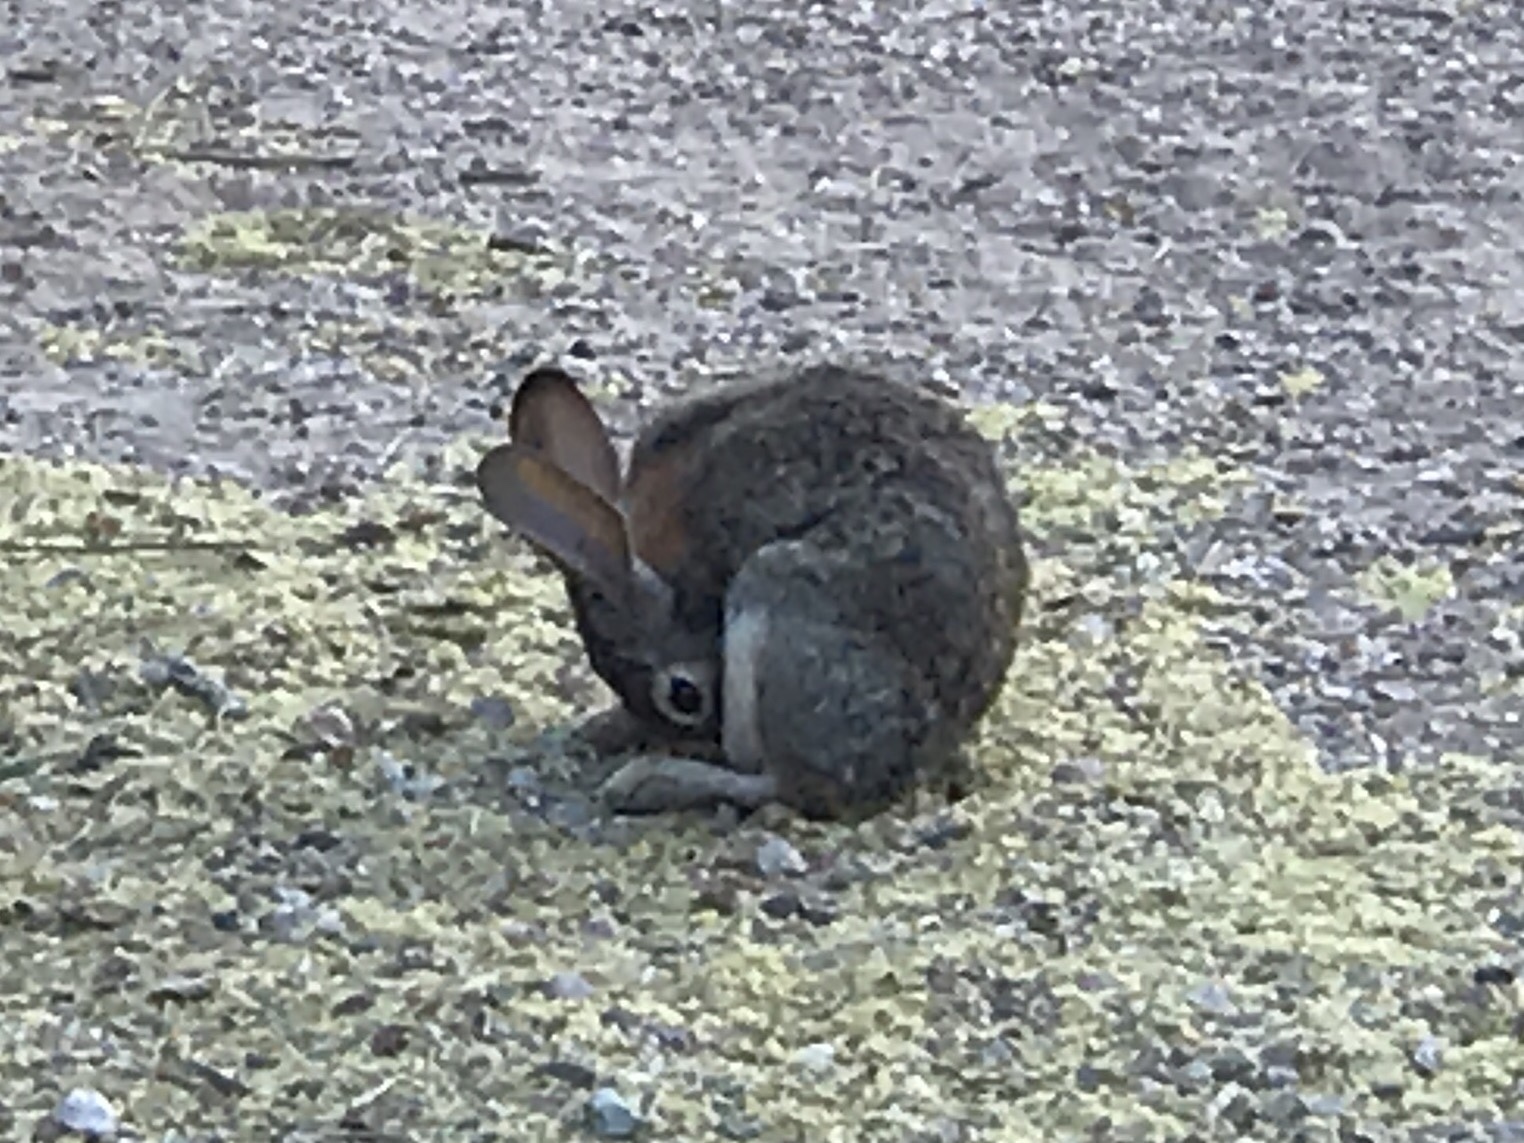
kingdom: Animalia
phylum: Chordata
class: Mammalia
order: Lagomorpha
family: Leporidae
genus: Sylvilagus
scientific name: Sylvilagus audubonii
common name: Desert cottontail
